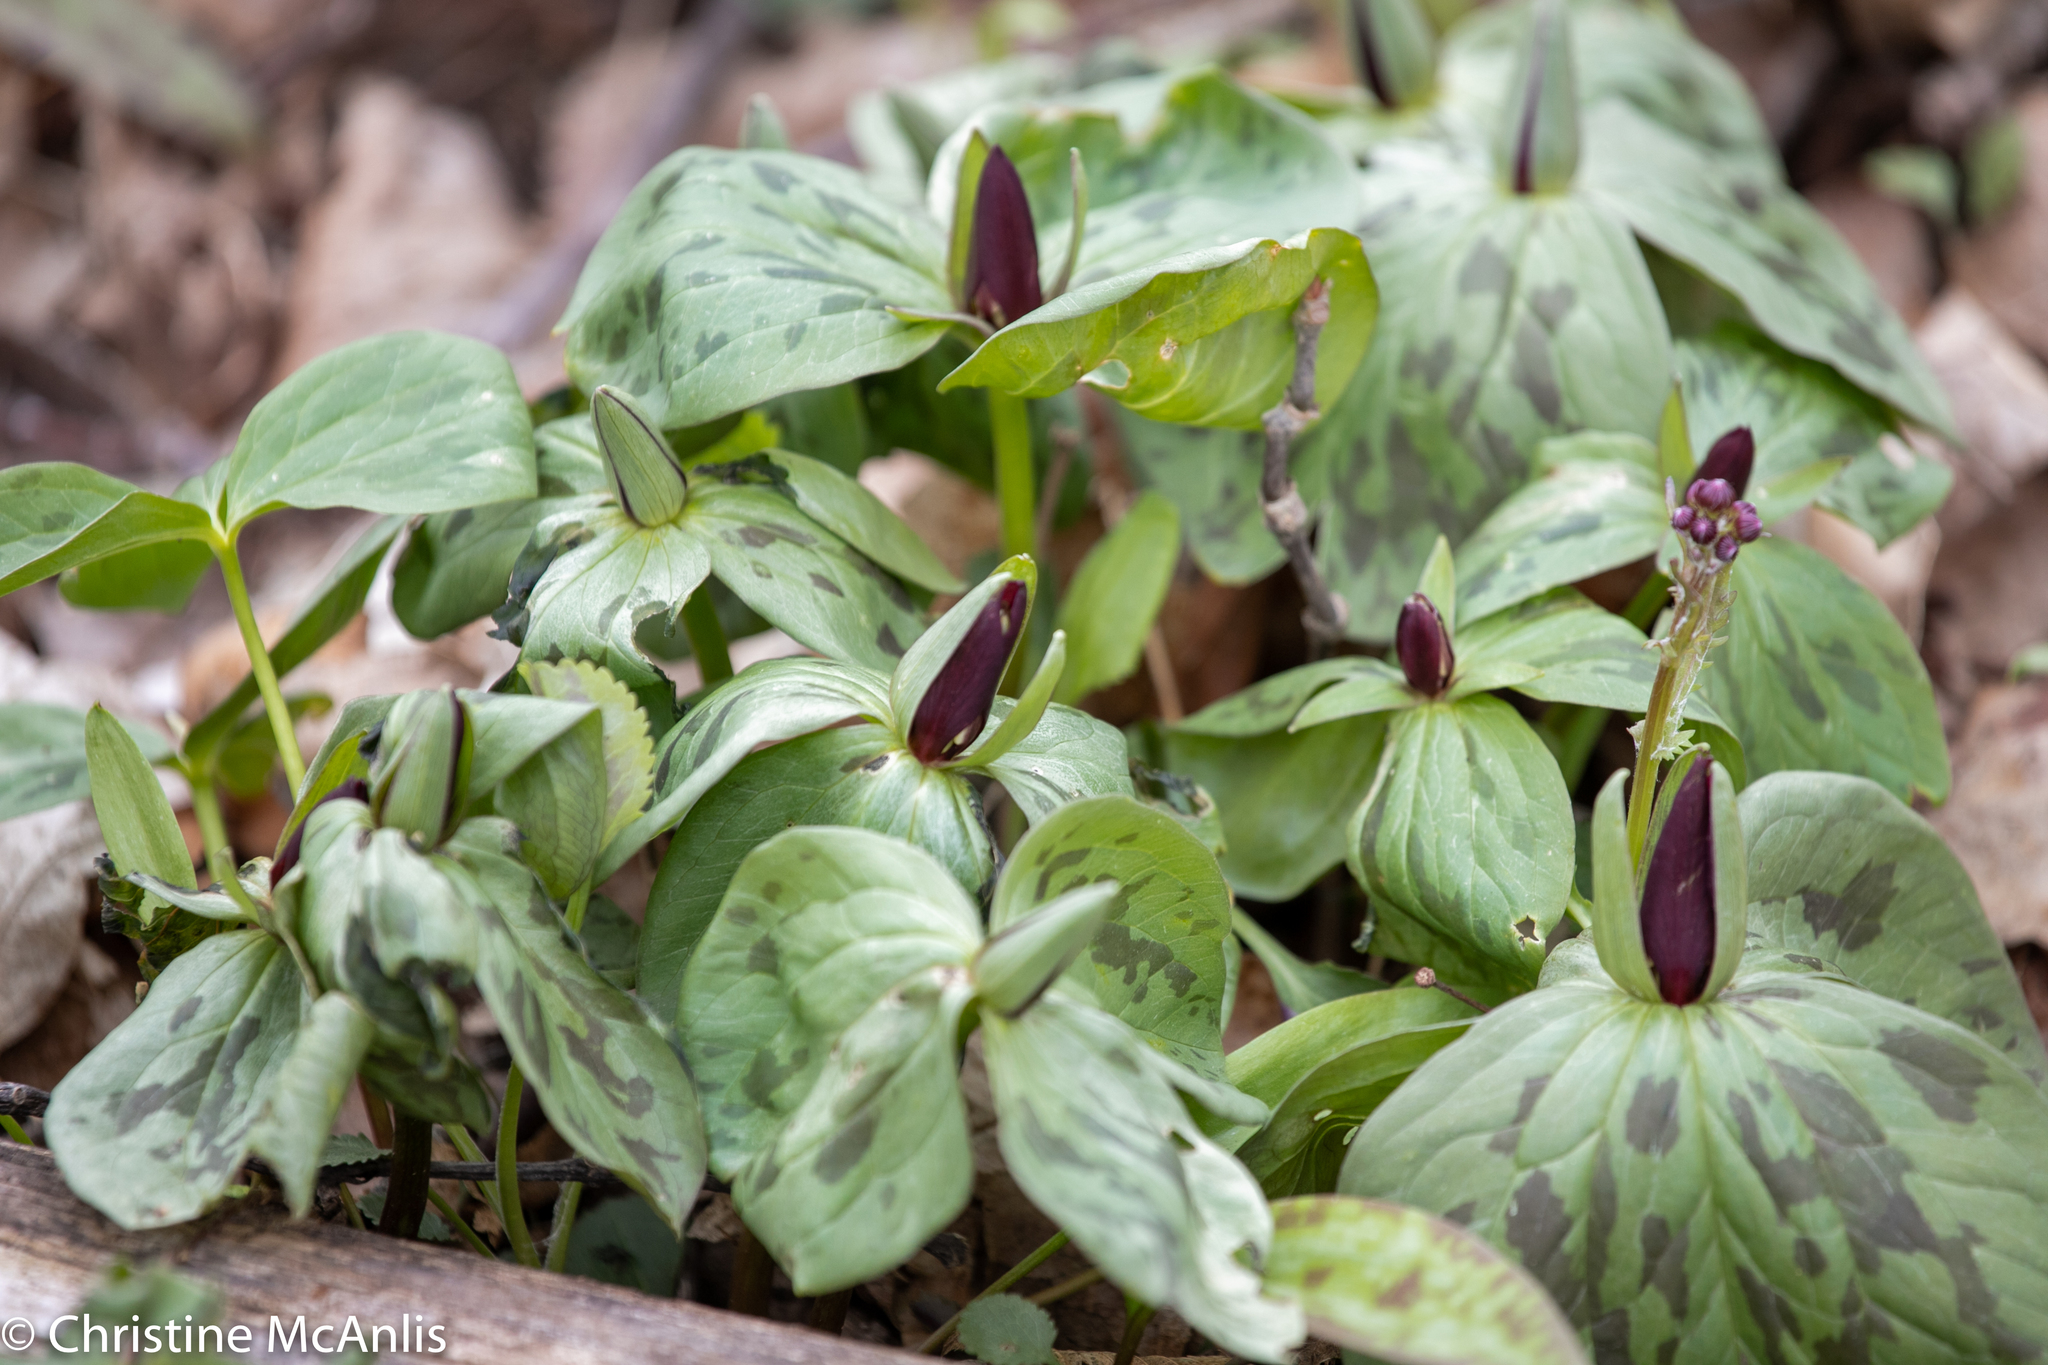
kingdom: Plantae
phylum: Tracheophyta
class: Liliopsida
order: Liliales
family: Melanthiaceae
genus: Trillium
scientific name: Trillium sessile
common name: Sessile trillium
